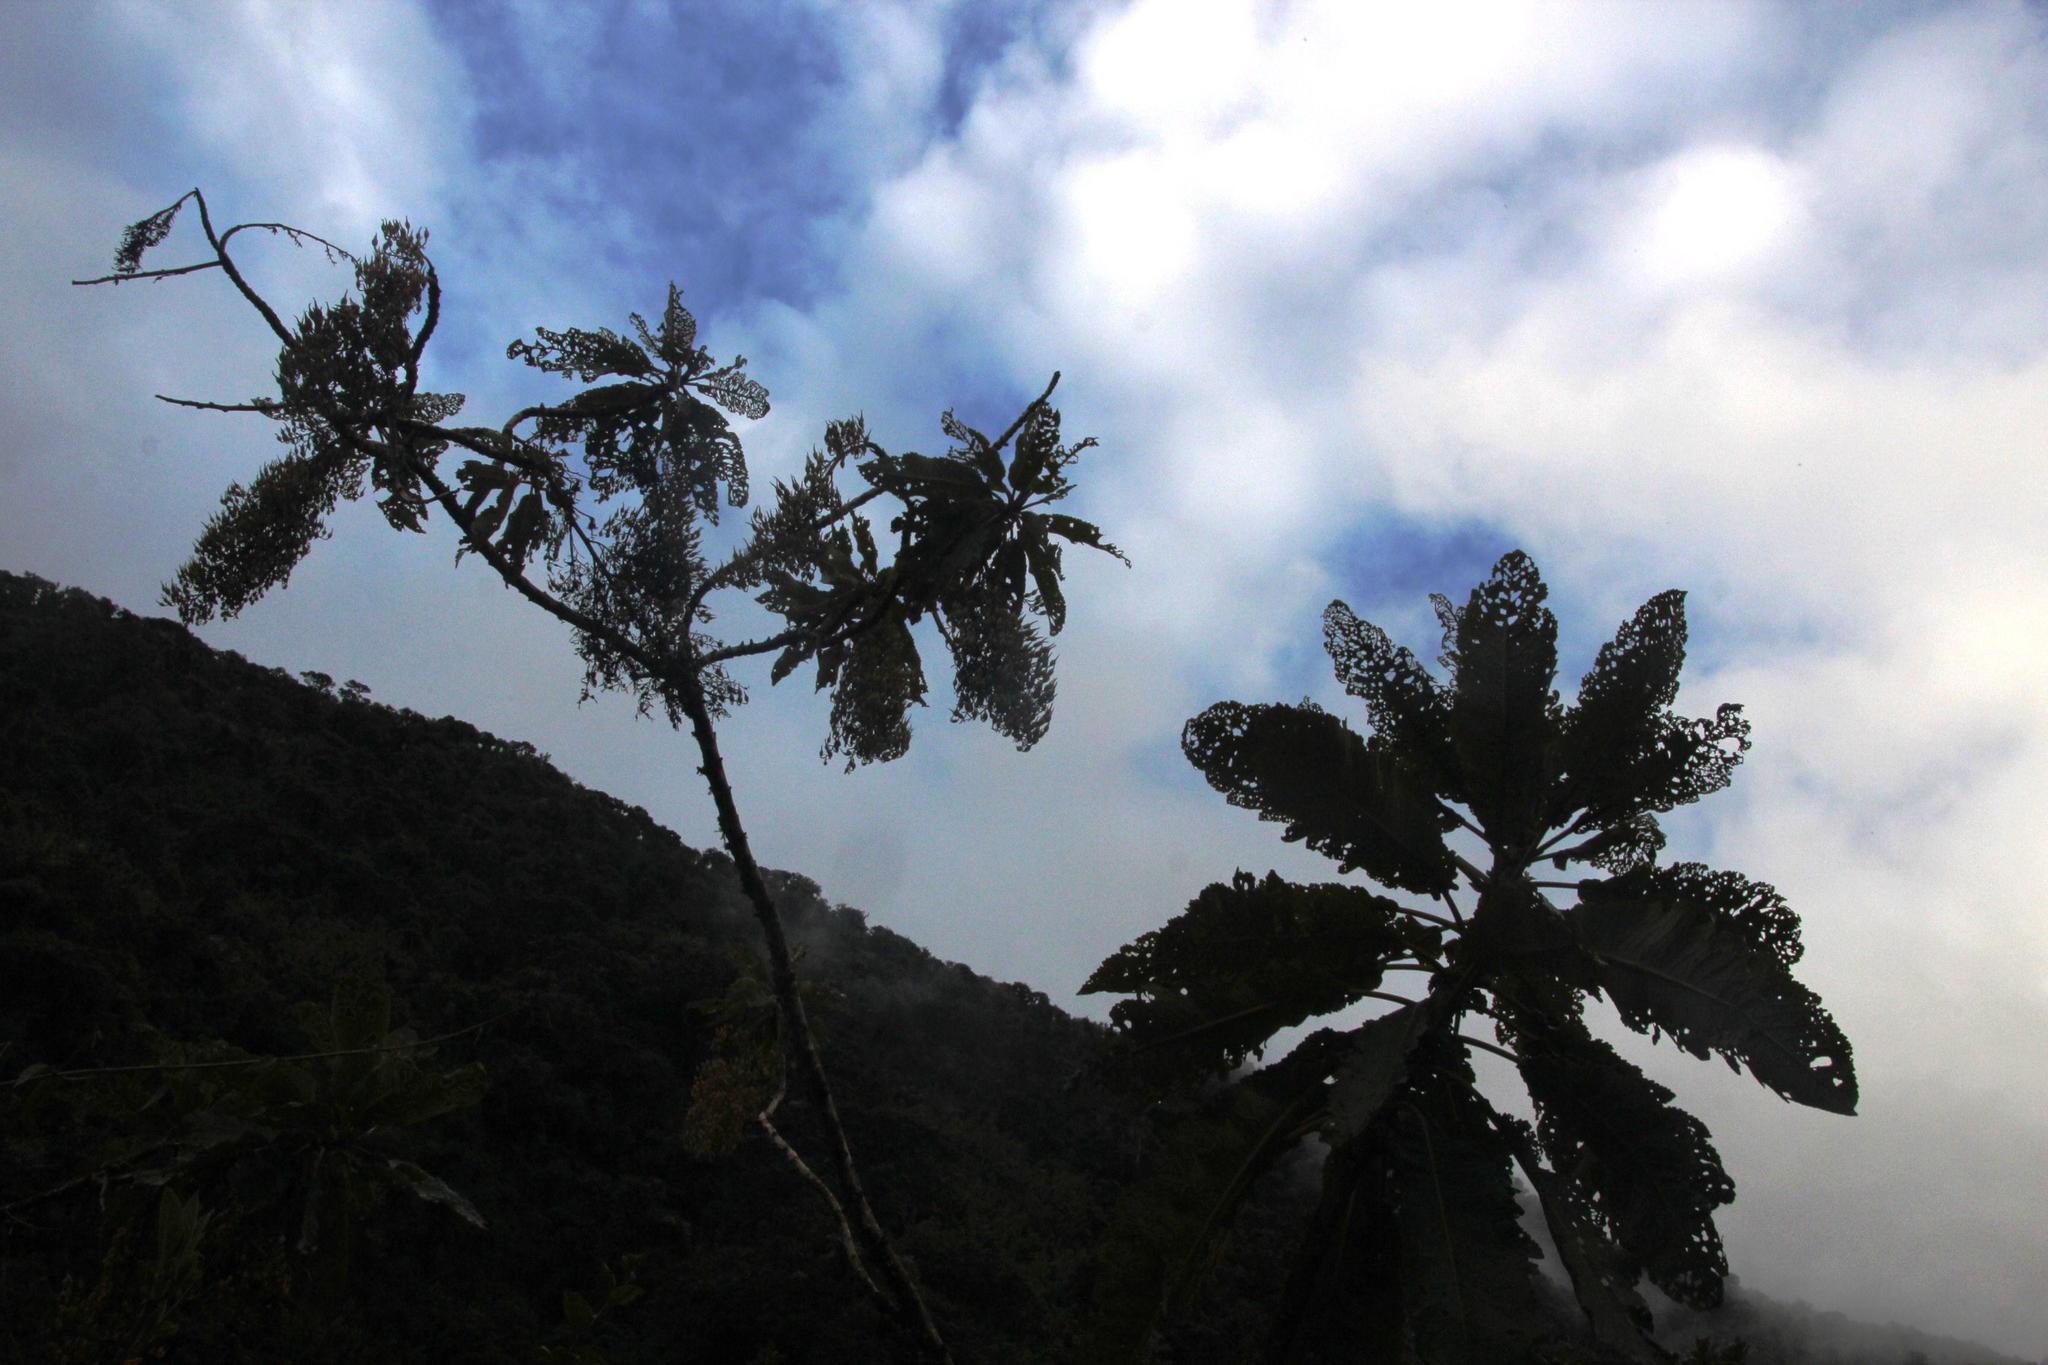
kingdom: Plantae
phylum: Tracheophyta
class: Magnoliopsida
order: Ranunculales
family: Papaveraceae
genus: Bocconia
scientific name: Bocconia integrifolia
